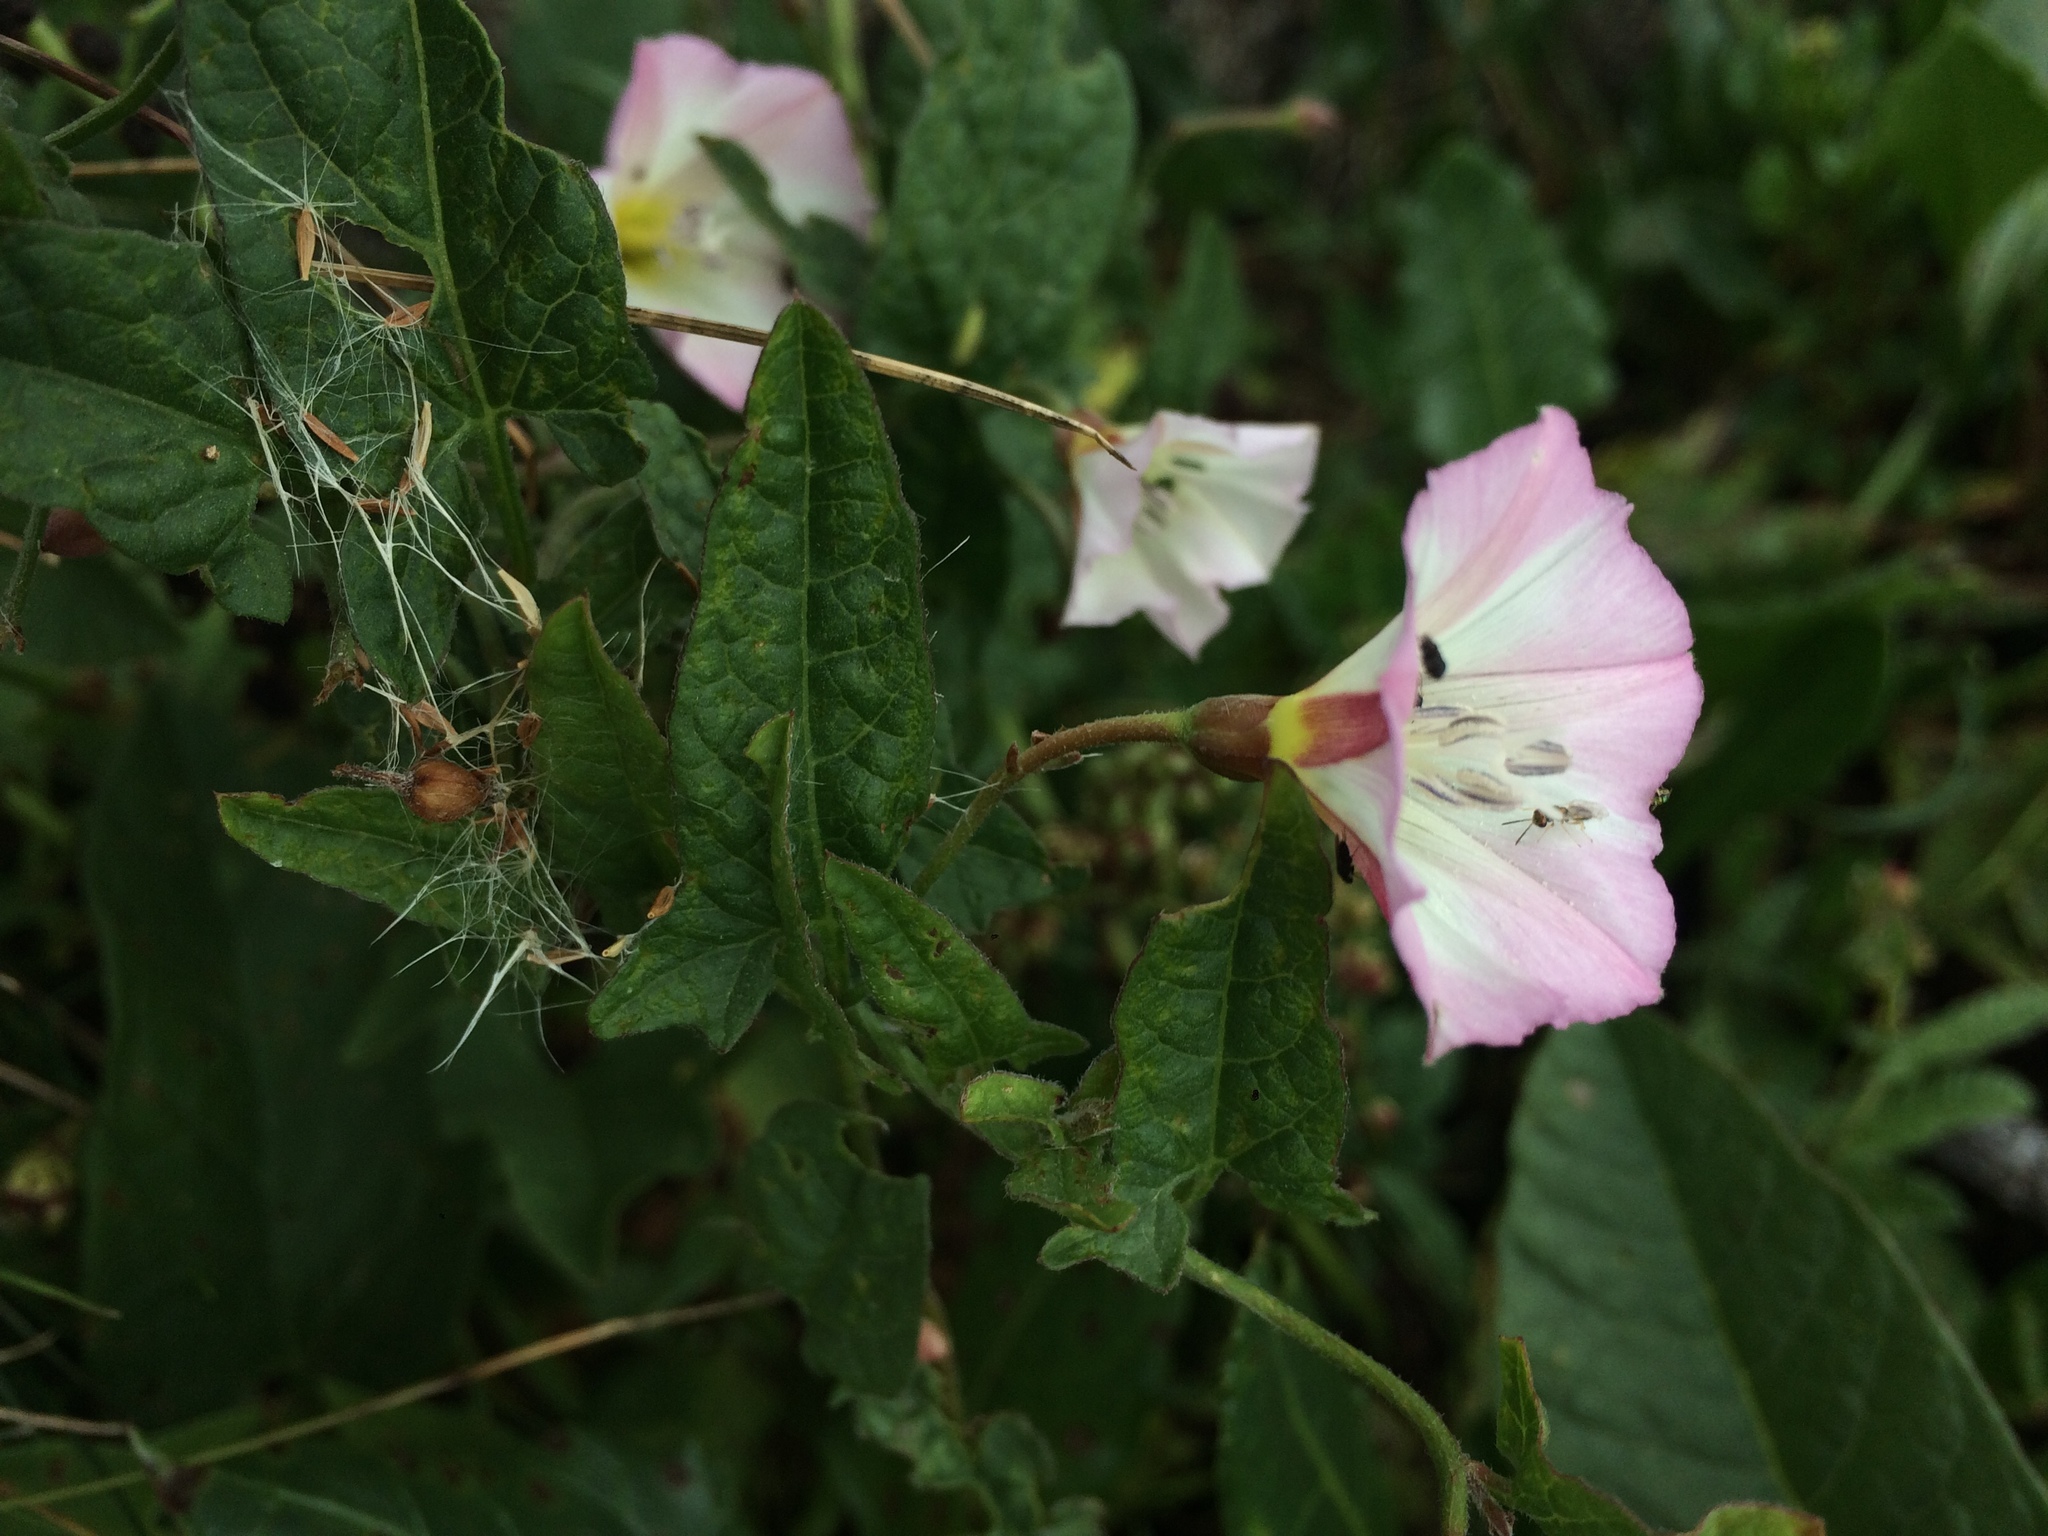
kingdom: Plantae
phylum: Tracheophyta
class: Magnoliopsida
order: Solanales
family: Convolvulaceae
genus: Convolvulus
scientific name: Convolvulus arvensis
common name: Field bindweed
